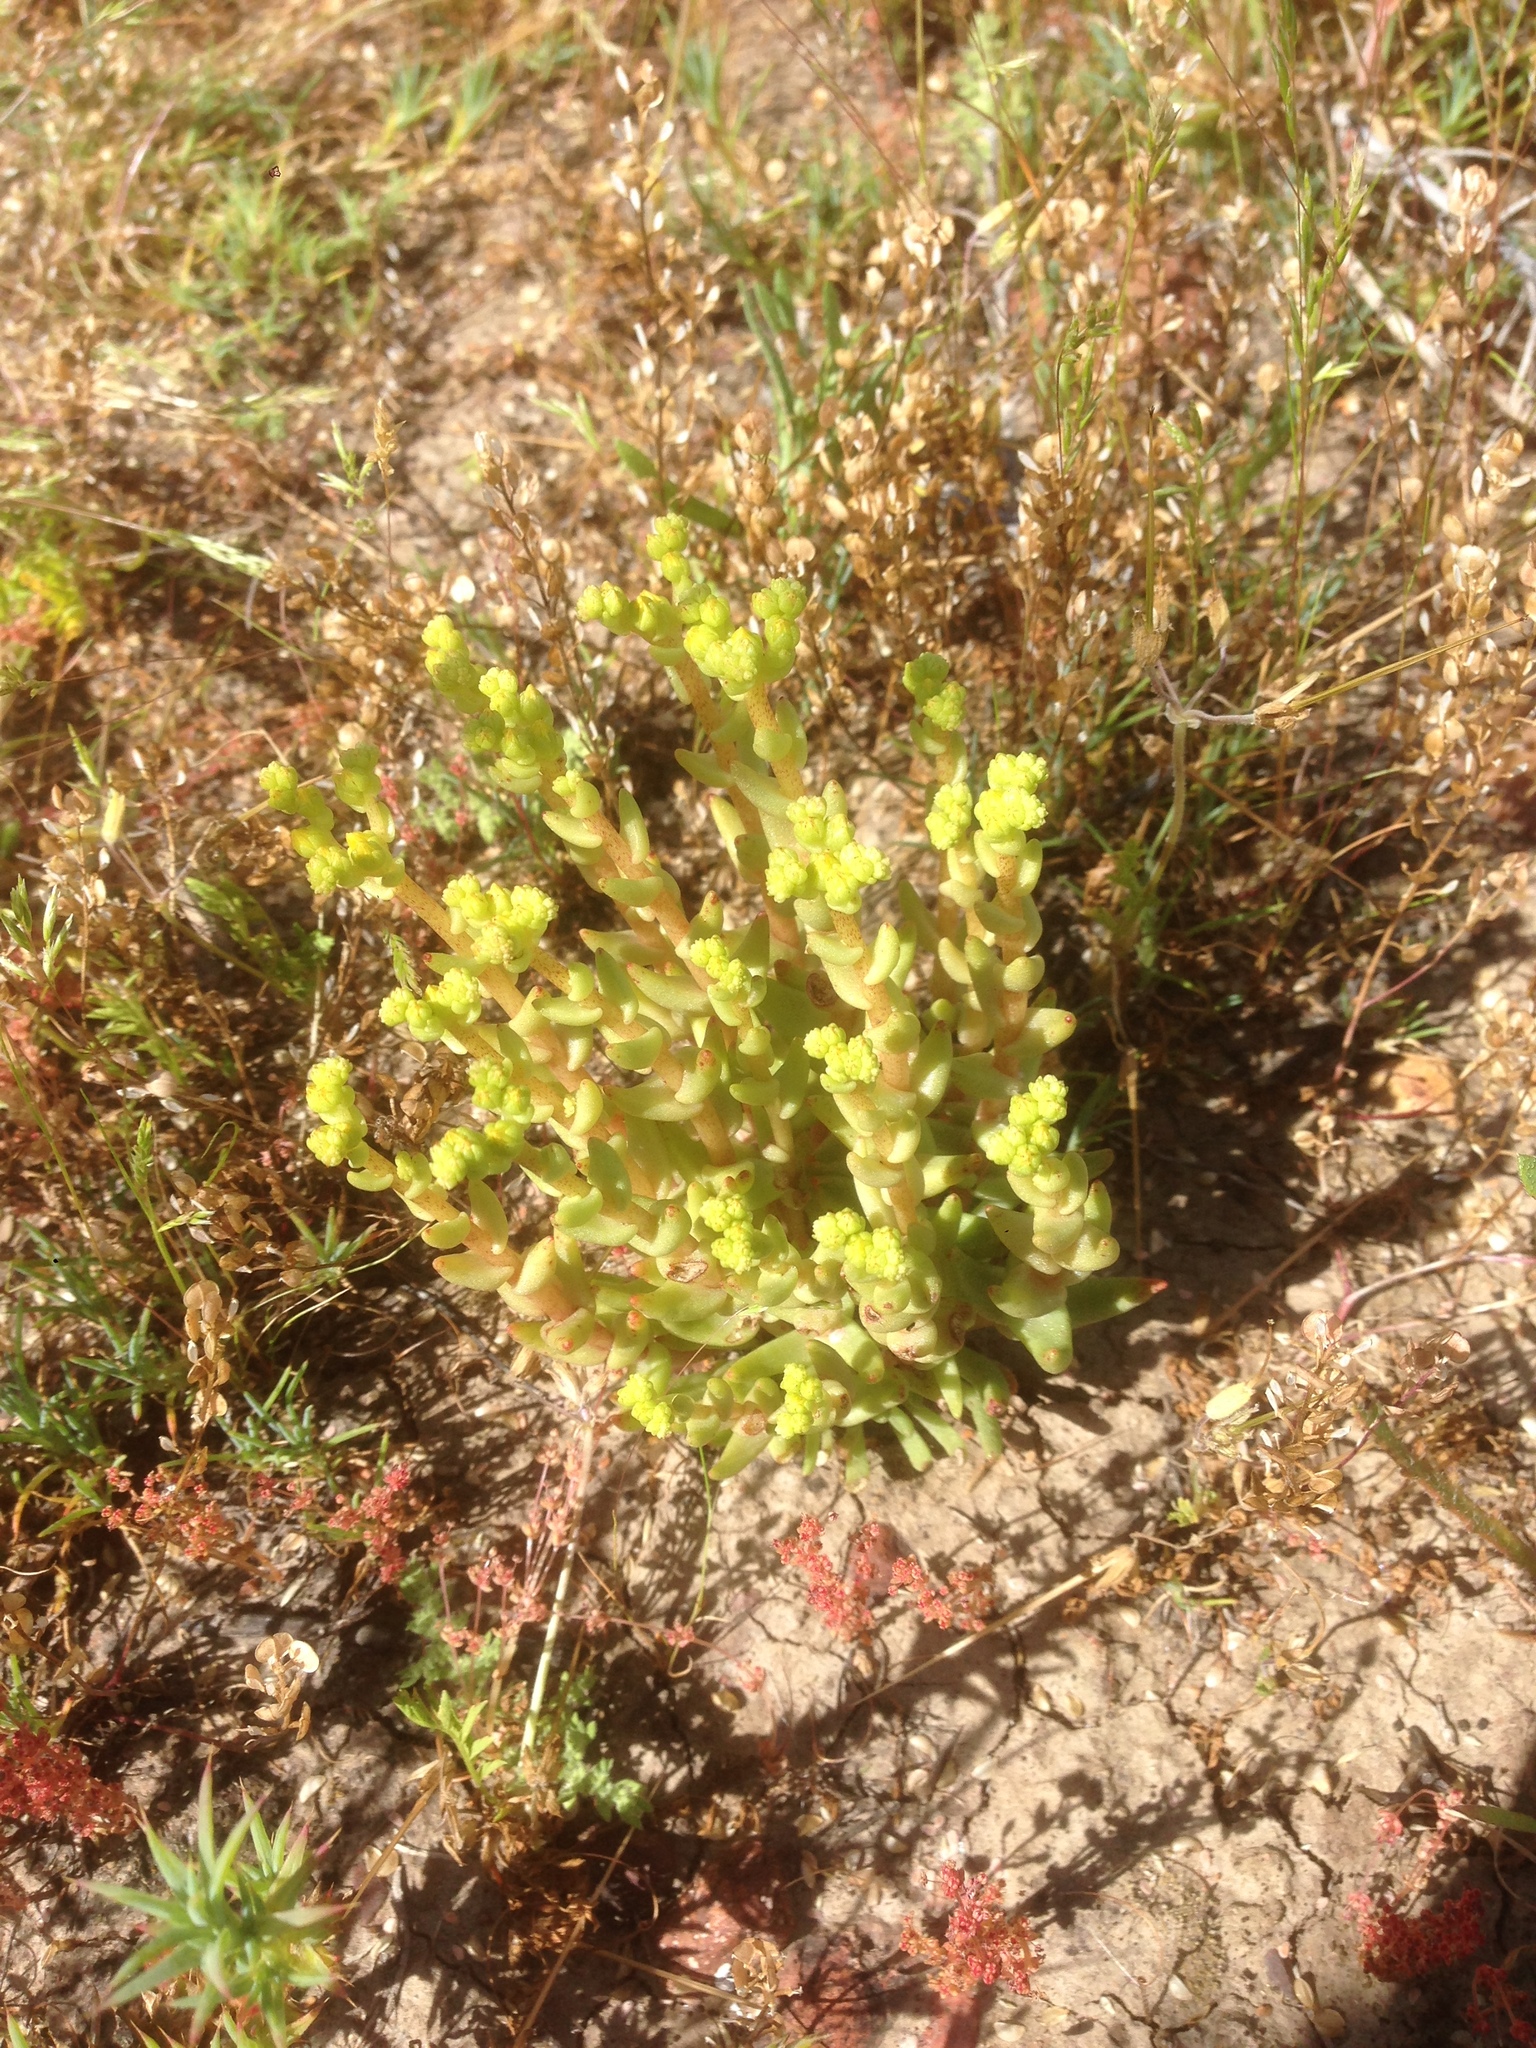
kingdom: Plantae
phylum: Tracheophyta
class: Magnoliopsida
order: Saxifragales
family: Crassulaceae
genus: Dudleya
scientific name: Dudleya variegata
